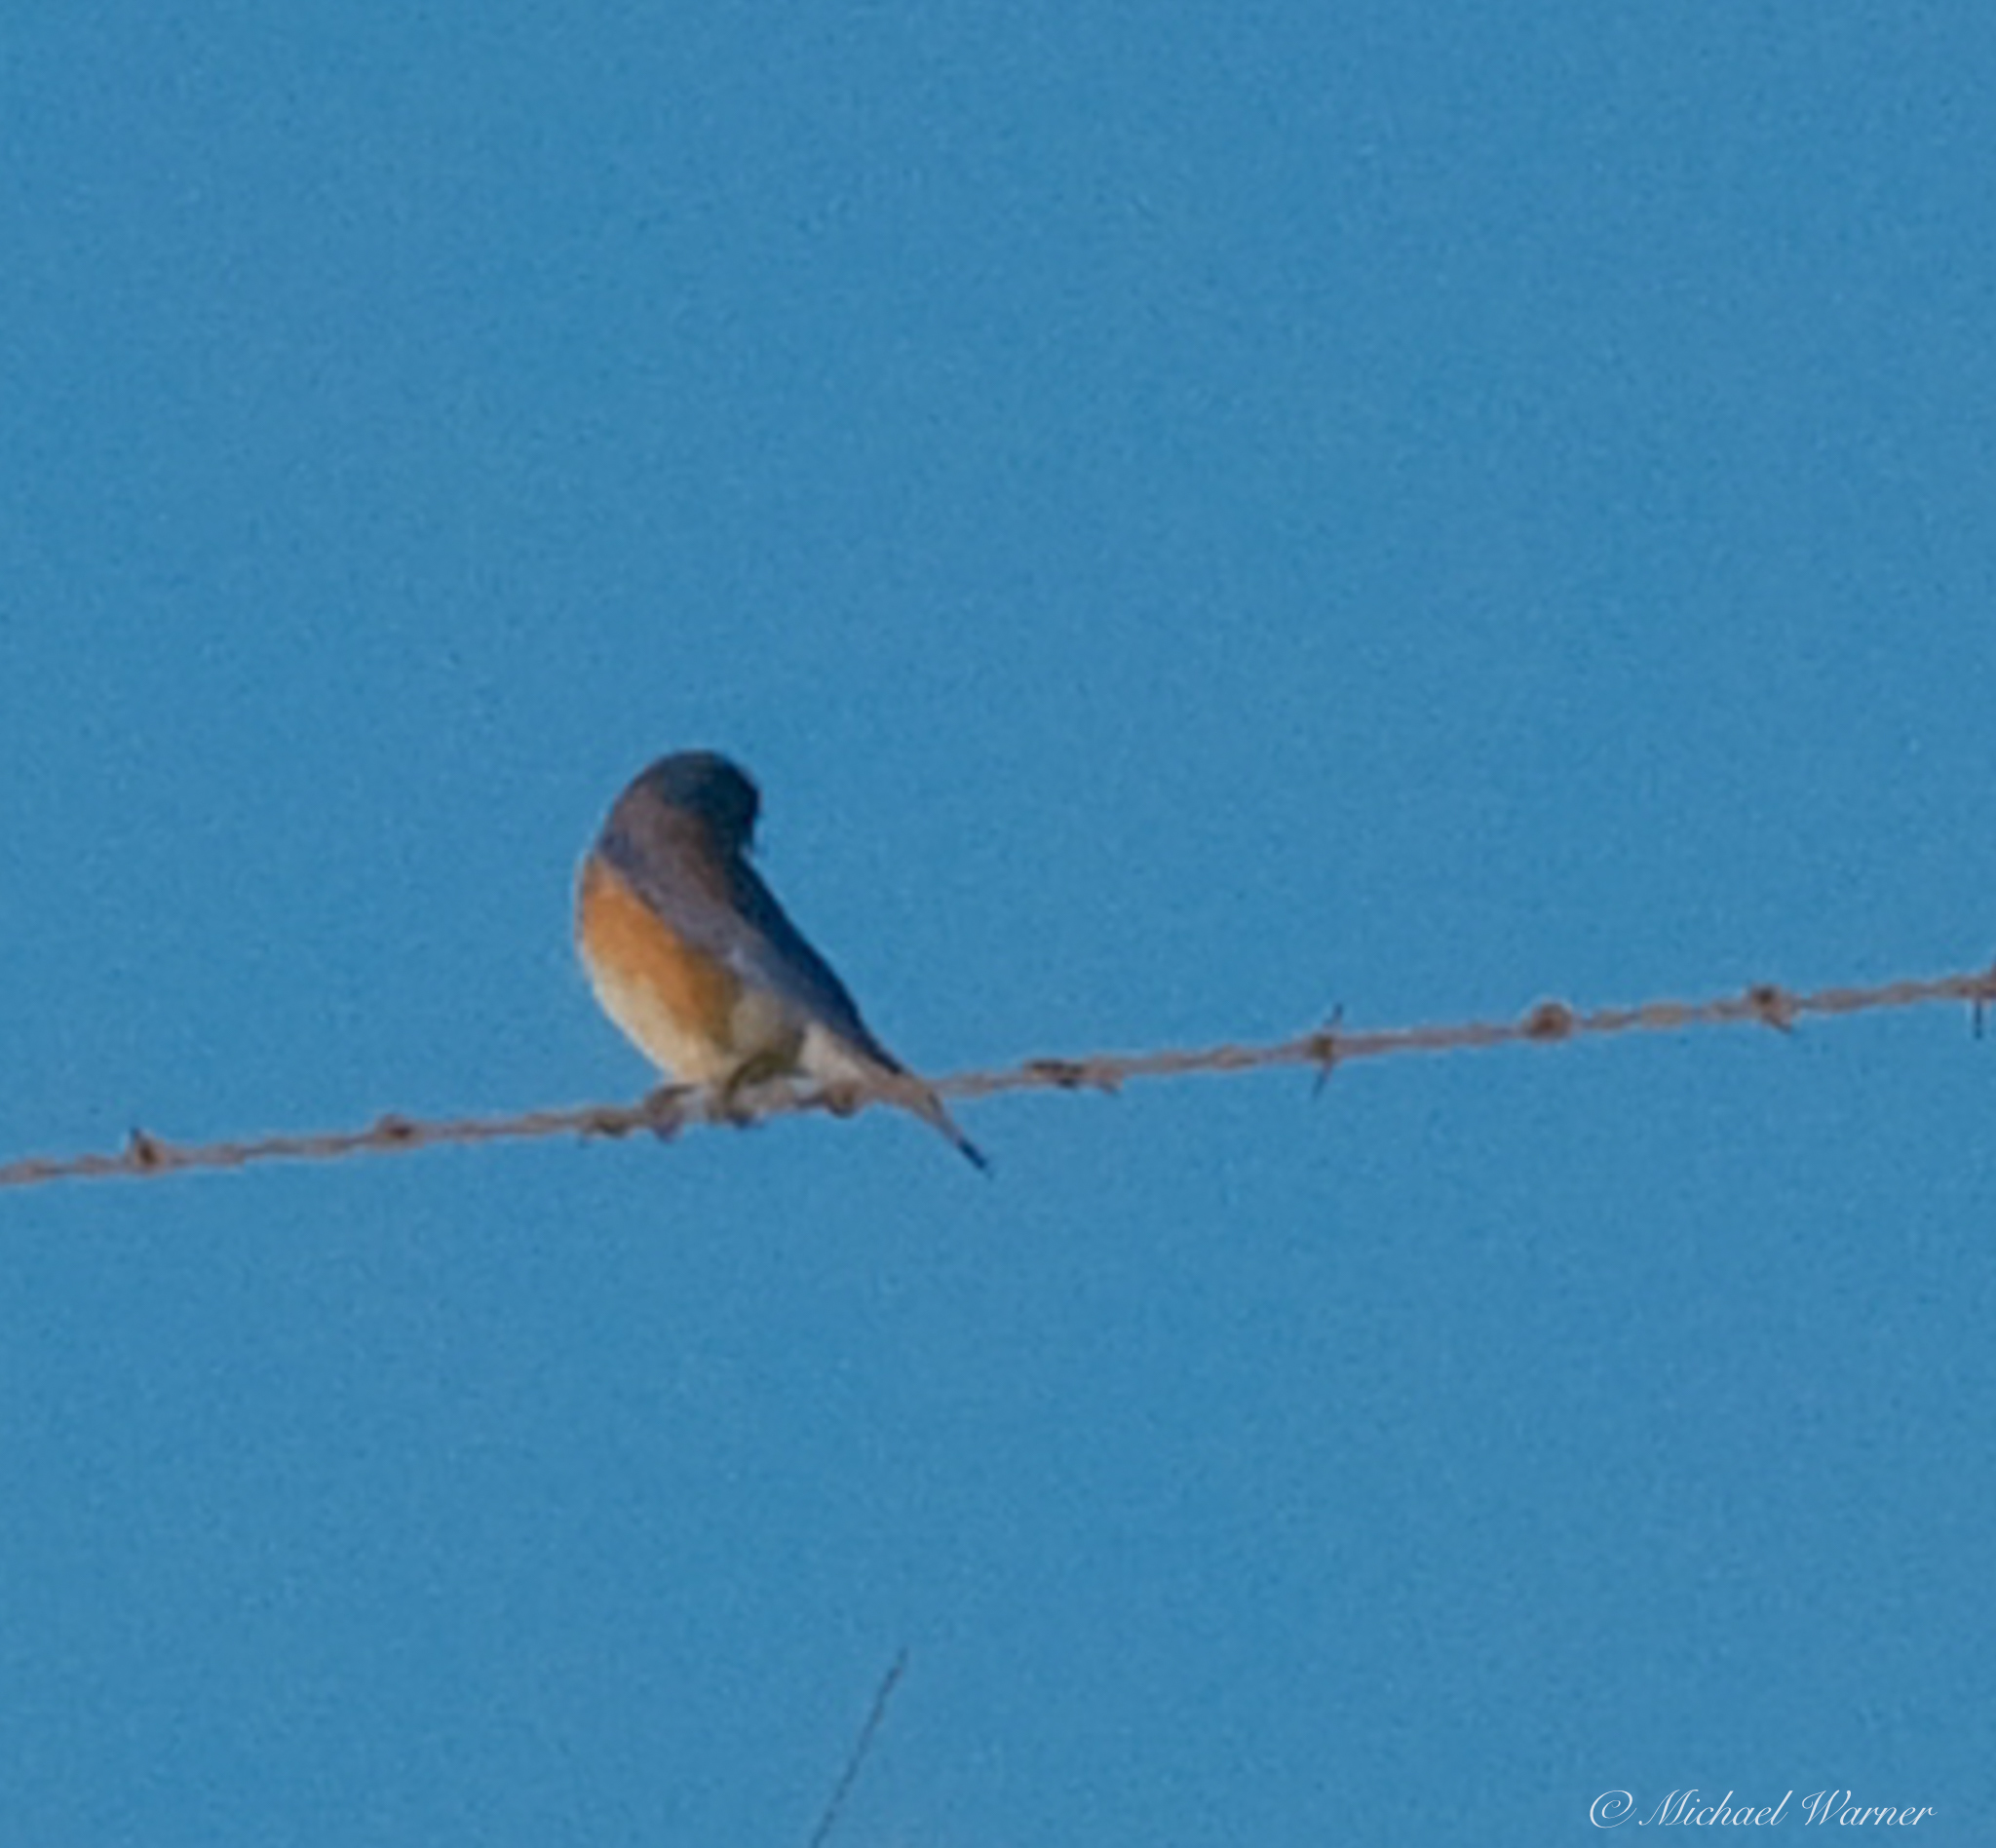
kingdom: Animalia
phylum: Chordata
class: Aves
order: Passeriformes
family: Turdidae
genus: Sialia
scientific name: Sialia mexicana
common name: Western bluebird
